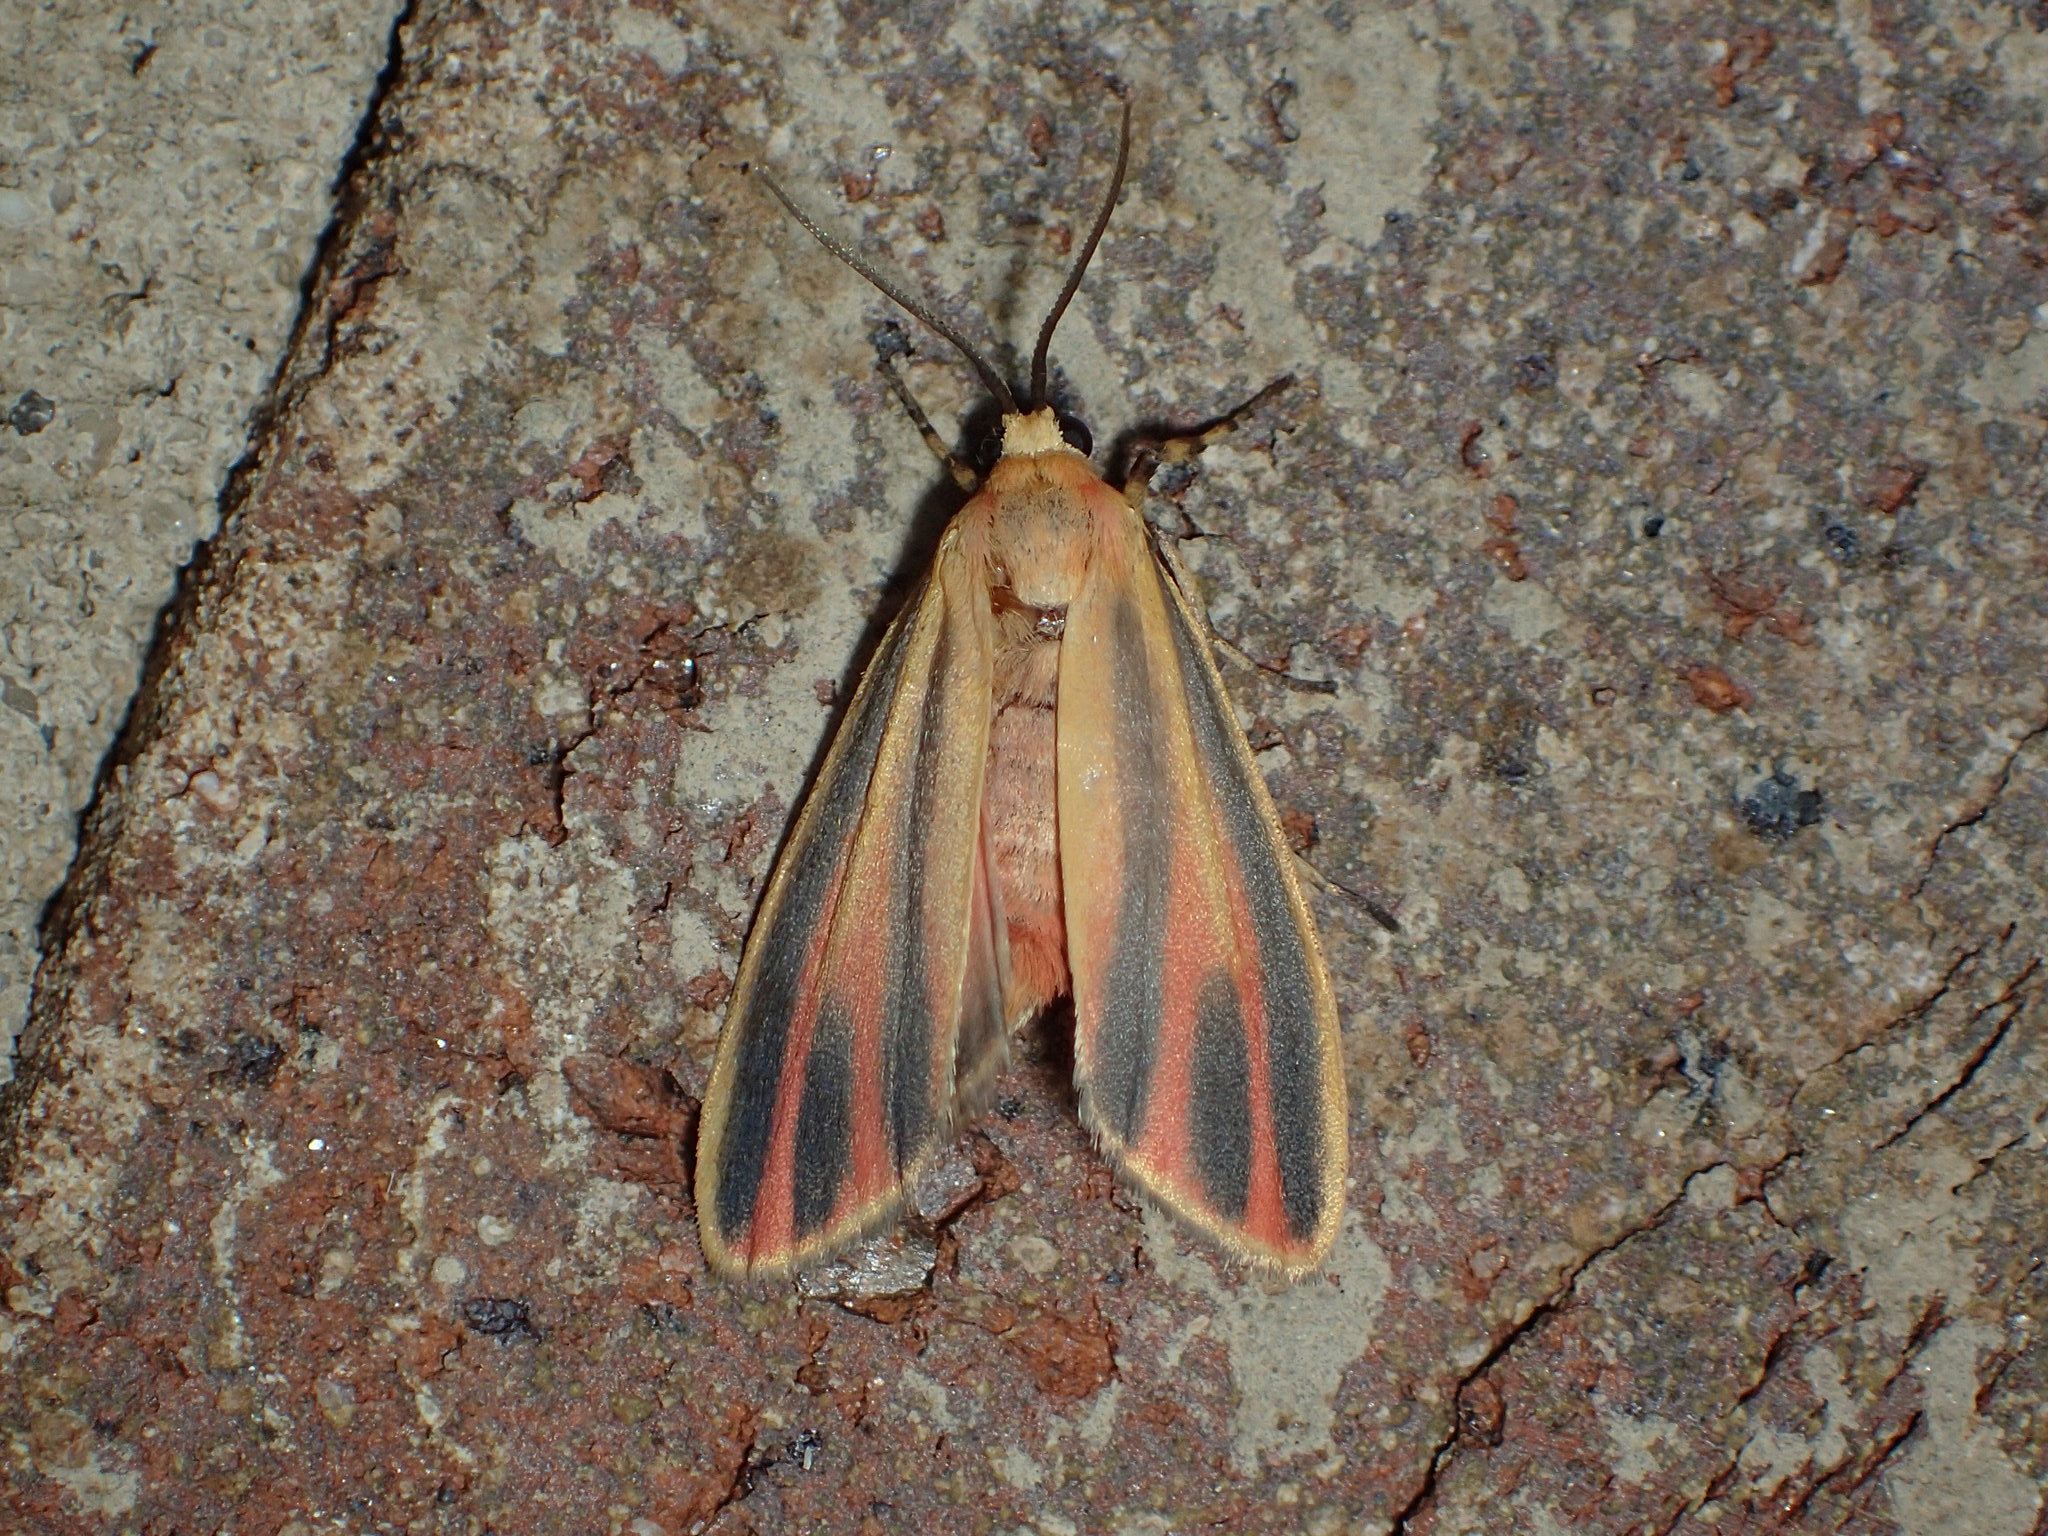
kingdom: Animalia
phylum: Arthropoda
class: Insecta
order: Lepidoptera
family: Erebidae
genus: Hypoprepia
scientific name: Hypoprepia fucosa
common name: Painted lichen moth
